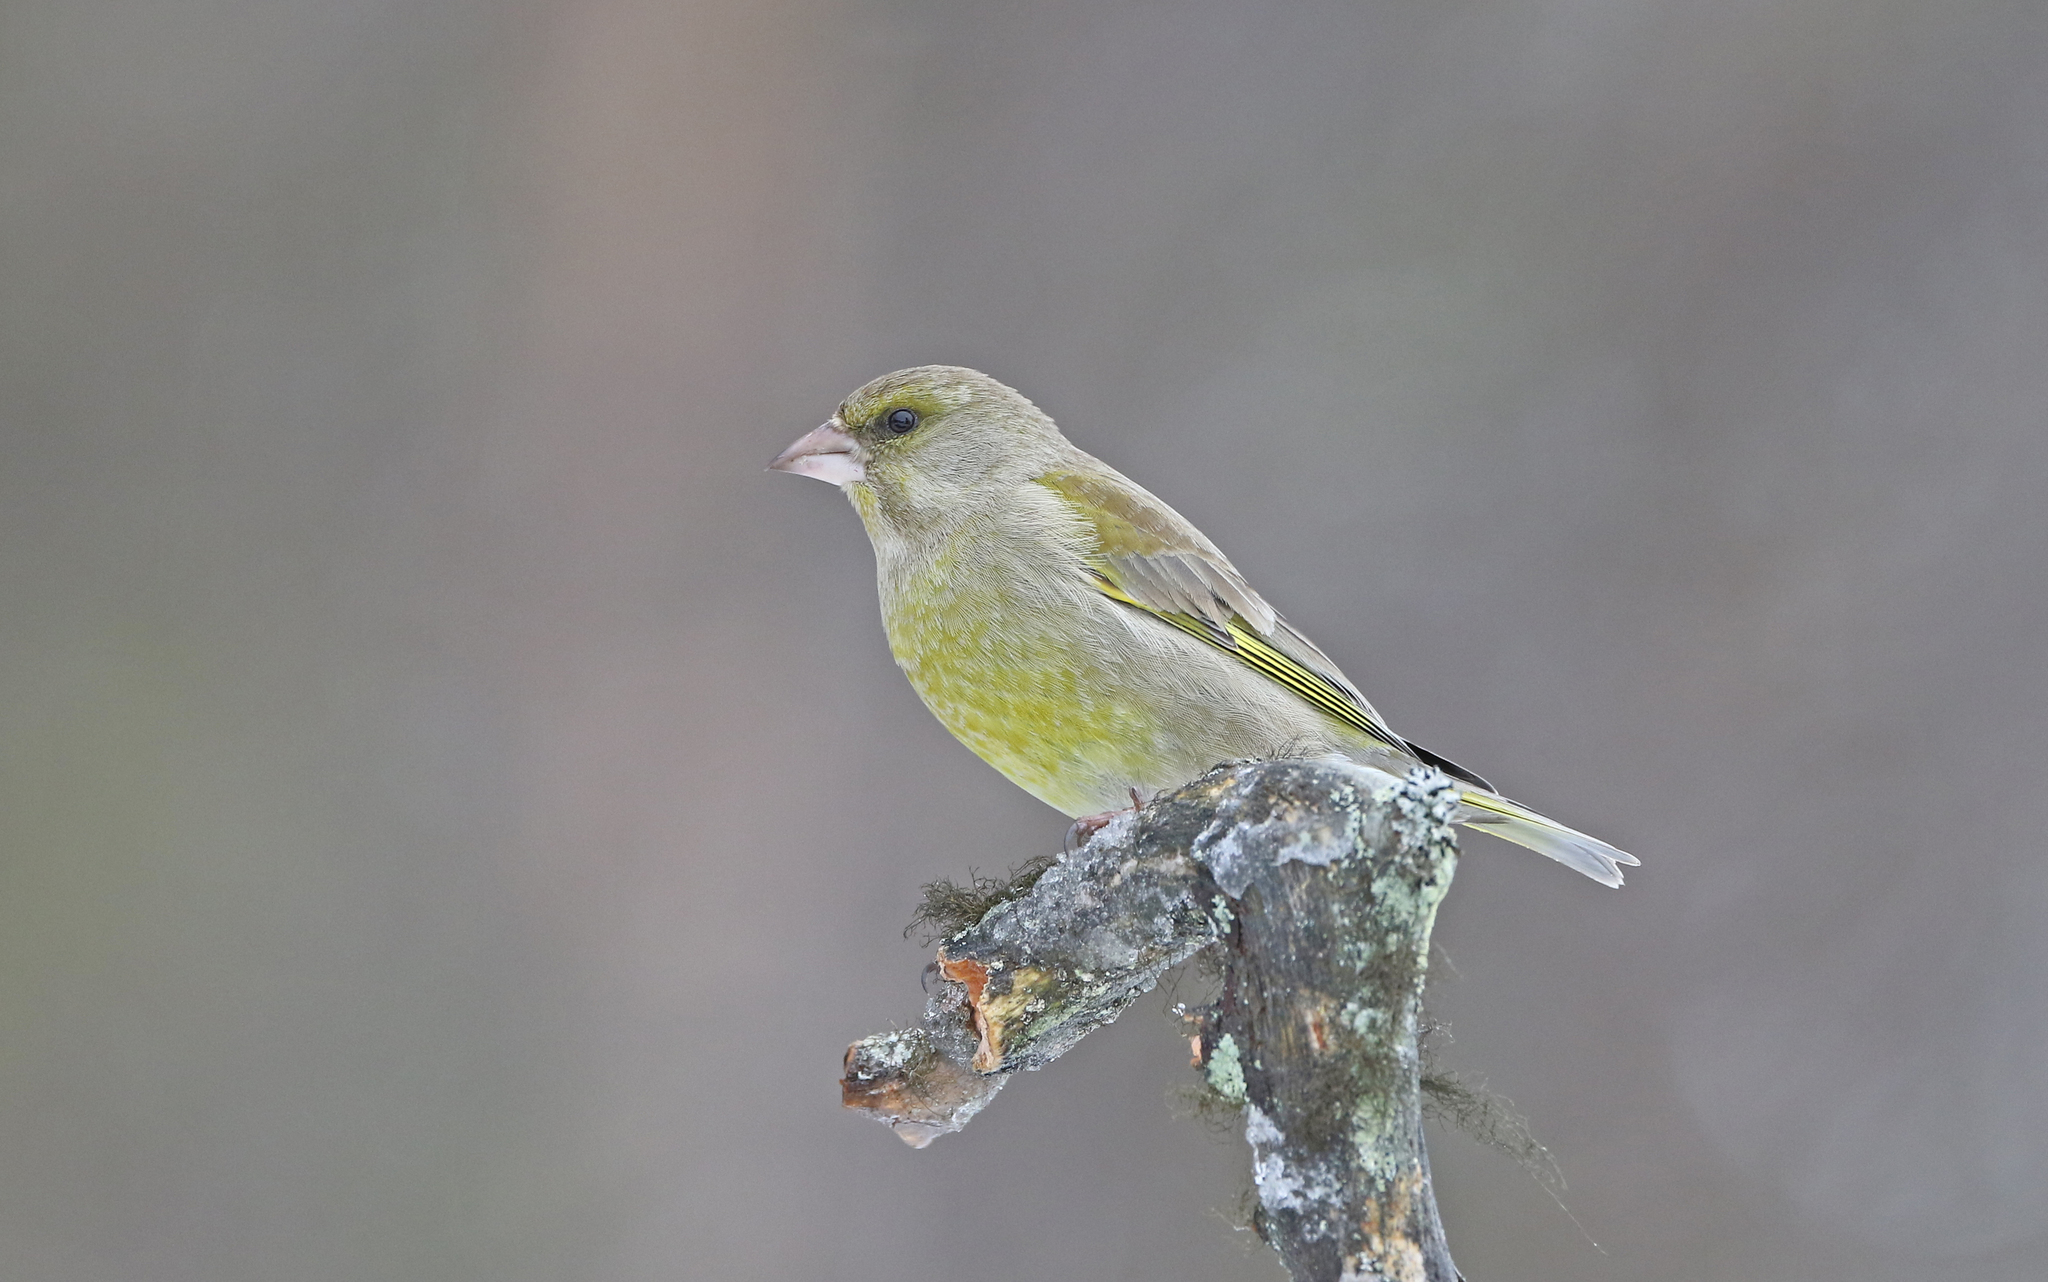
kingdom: Plantae
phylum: Tracheophyta
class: Liliopsida
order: Poales
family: Poaceae
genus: Chloris
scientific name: Chloris chloris
